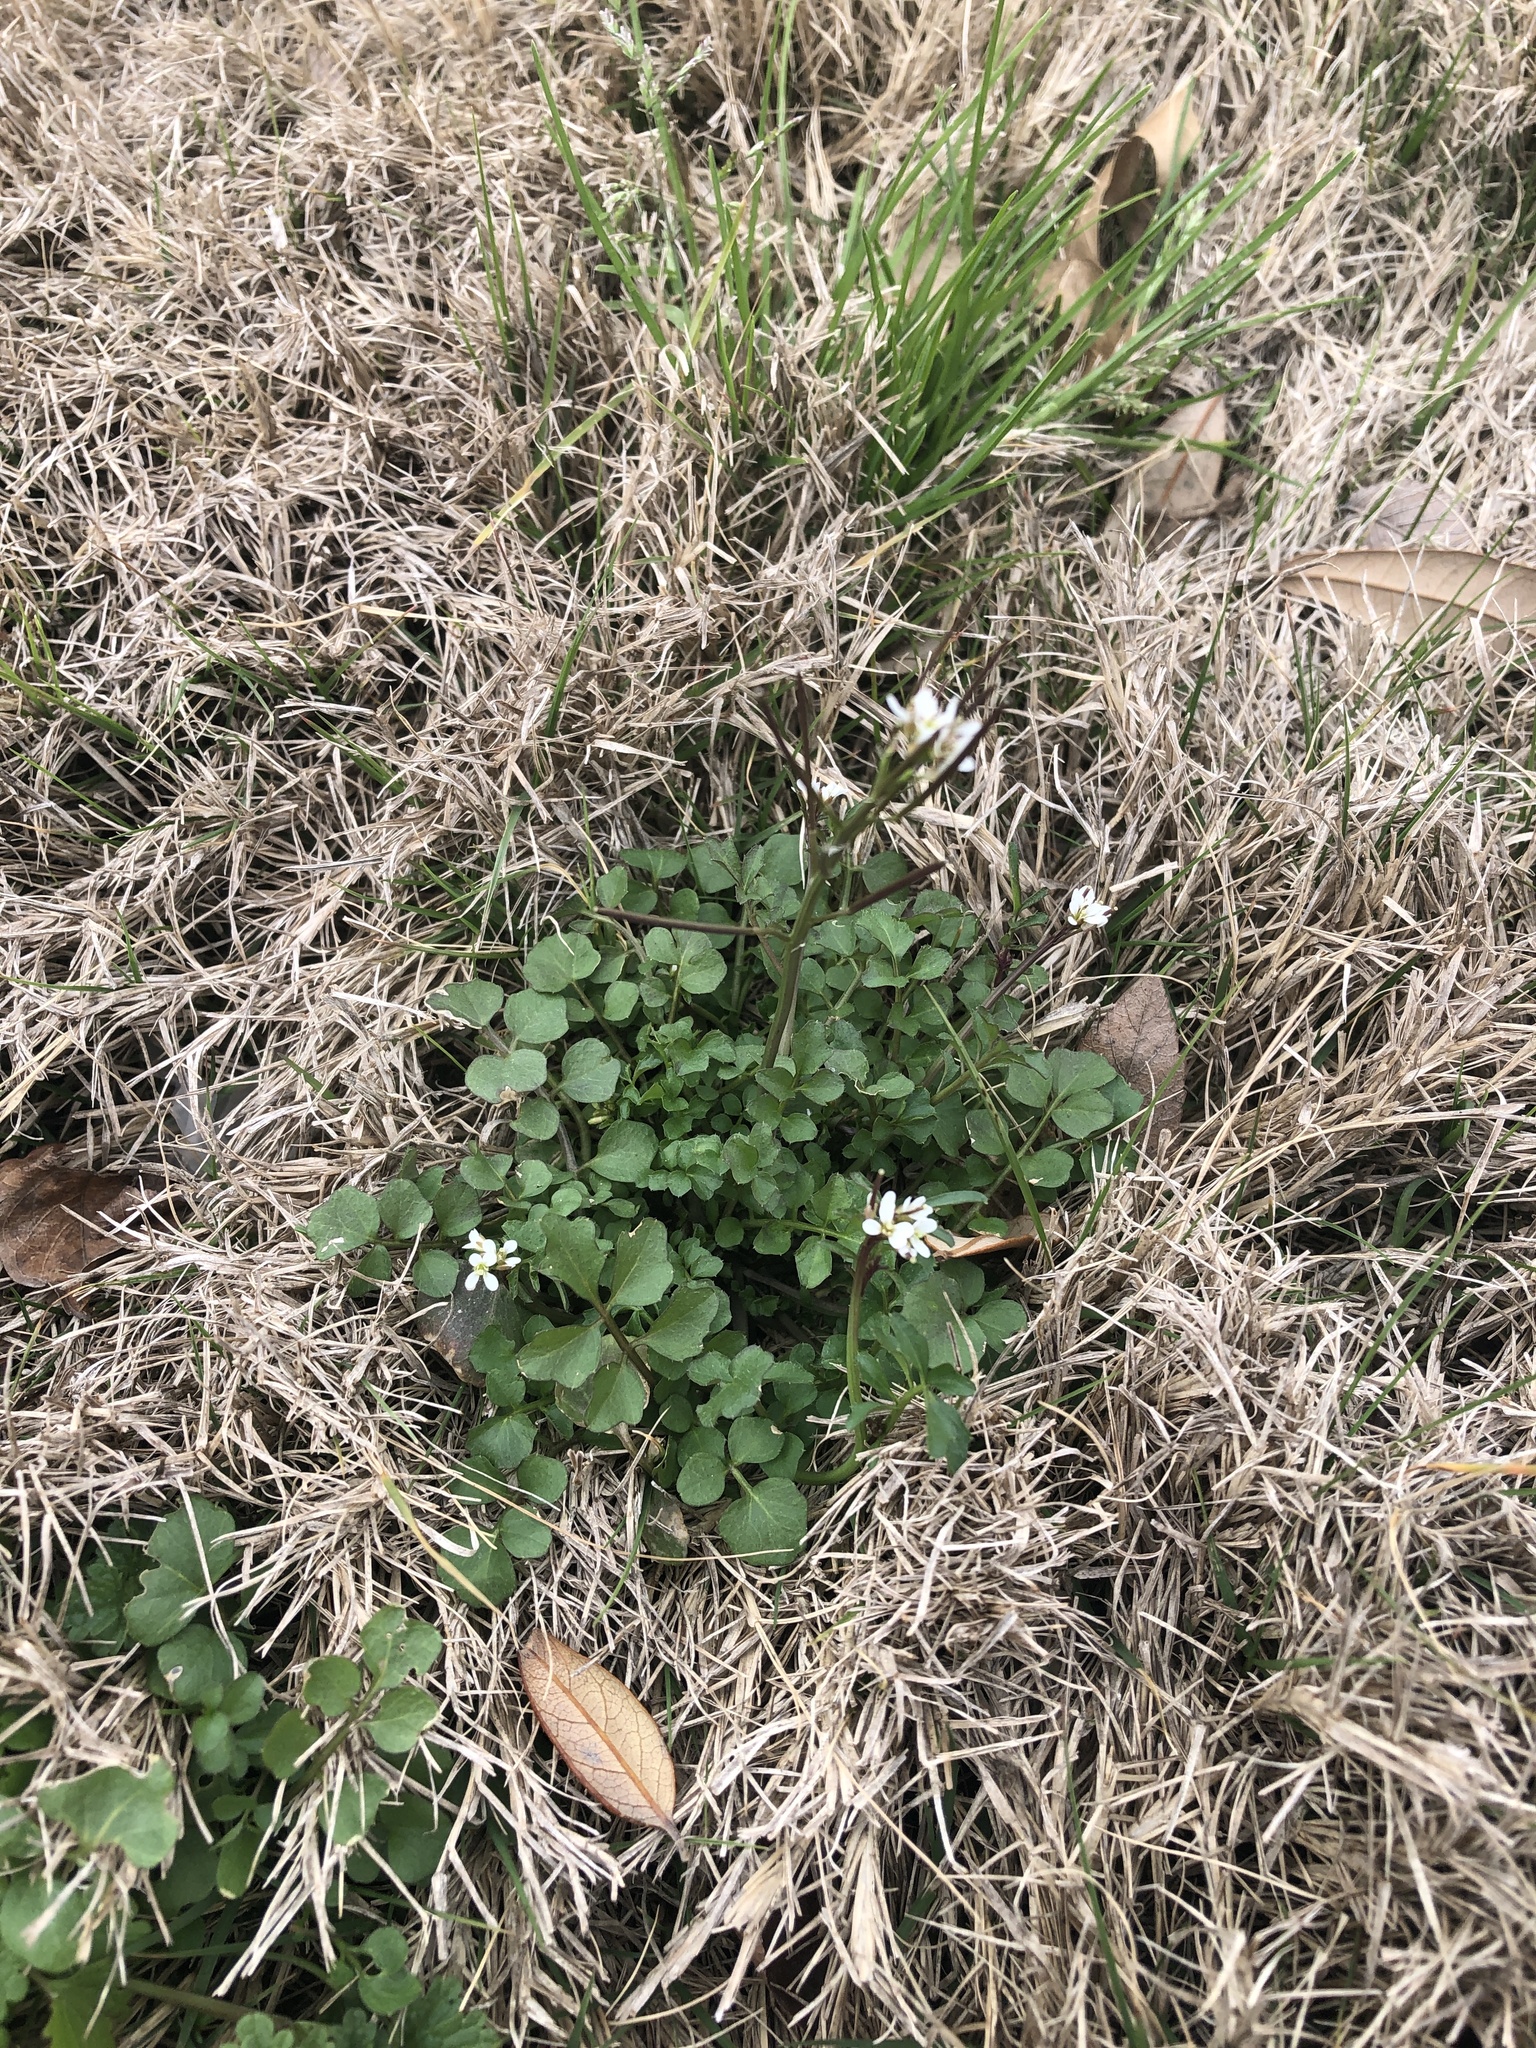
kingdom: Plantae
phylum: Tracheophyta
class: Magnoliopsida
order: Brassicales
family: Brassicaceae
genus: Cardamine
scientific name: Cardamine hirsuta
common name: Hairy bittercress
